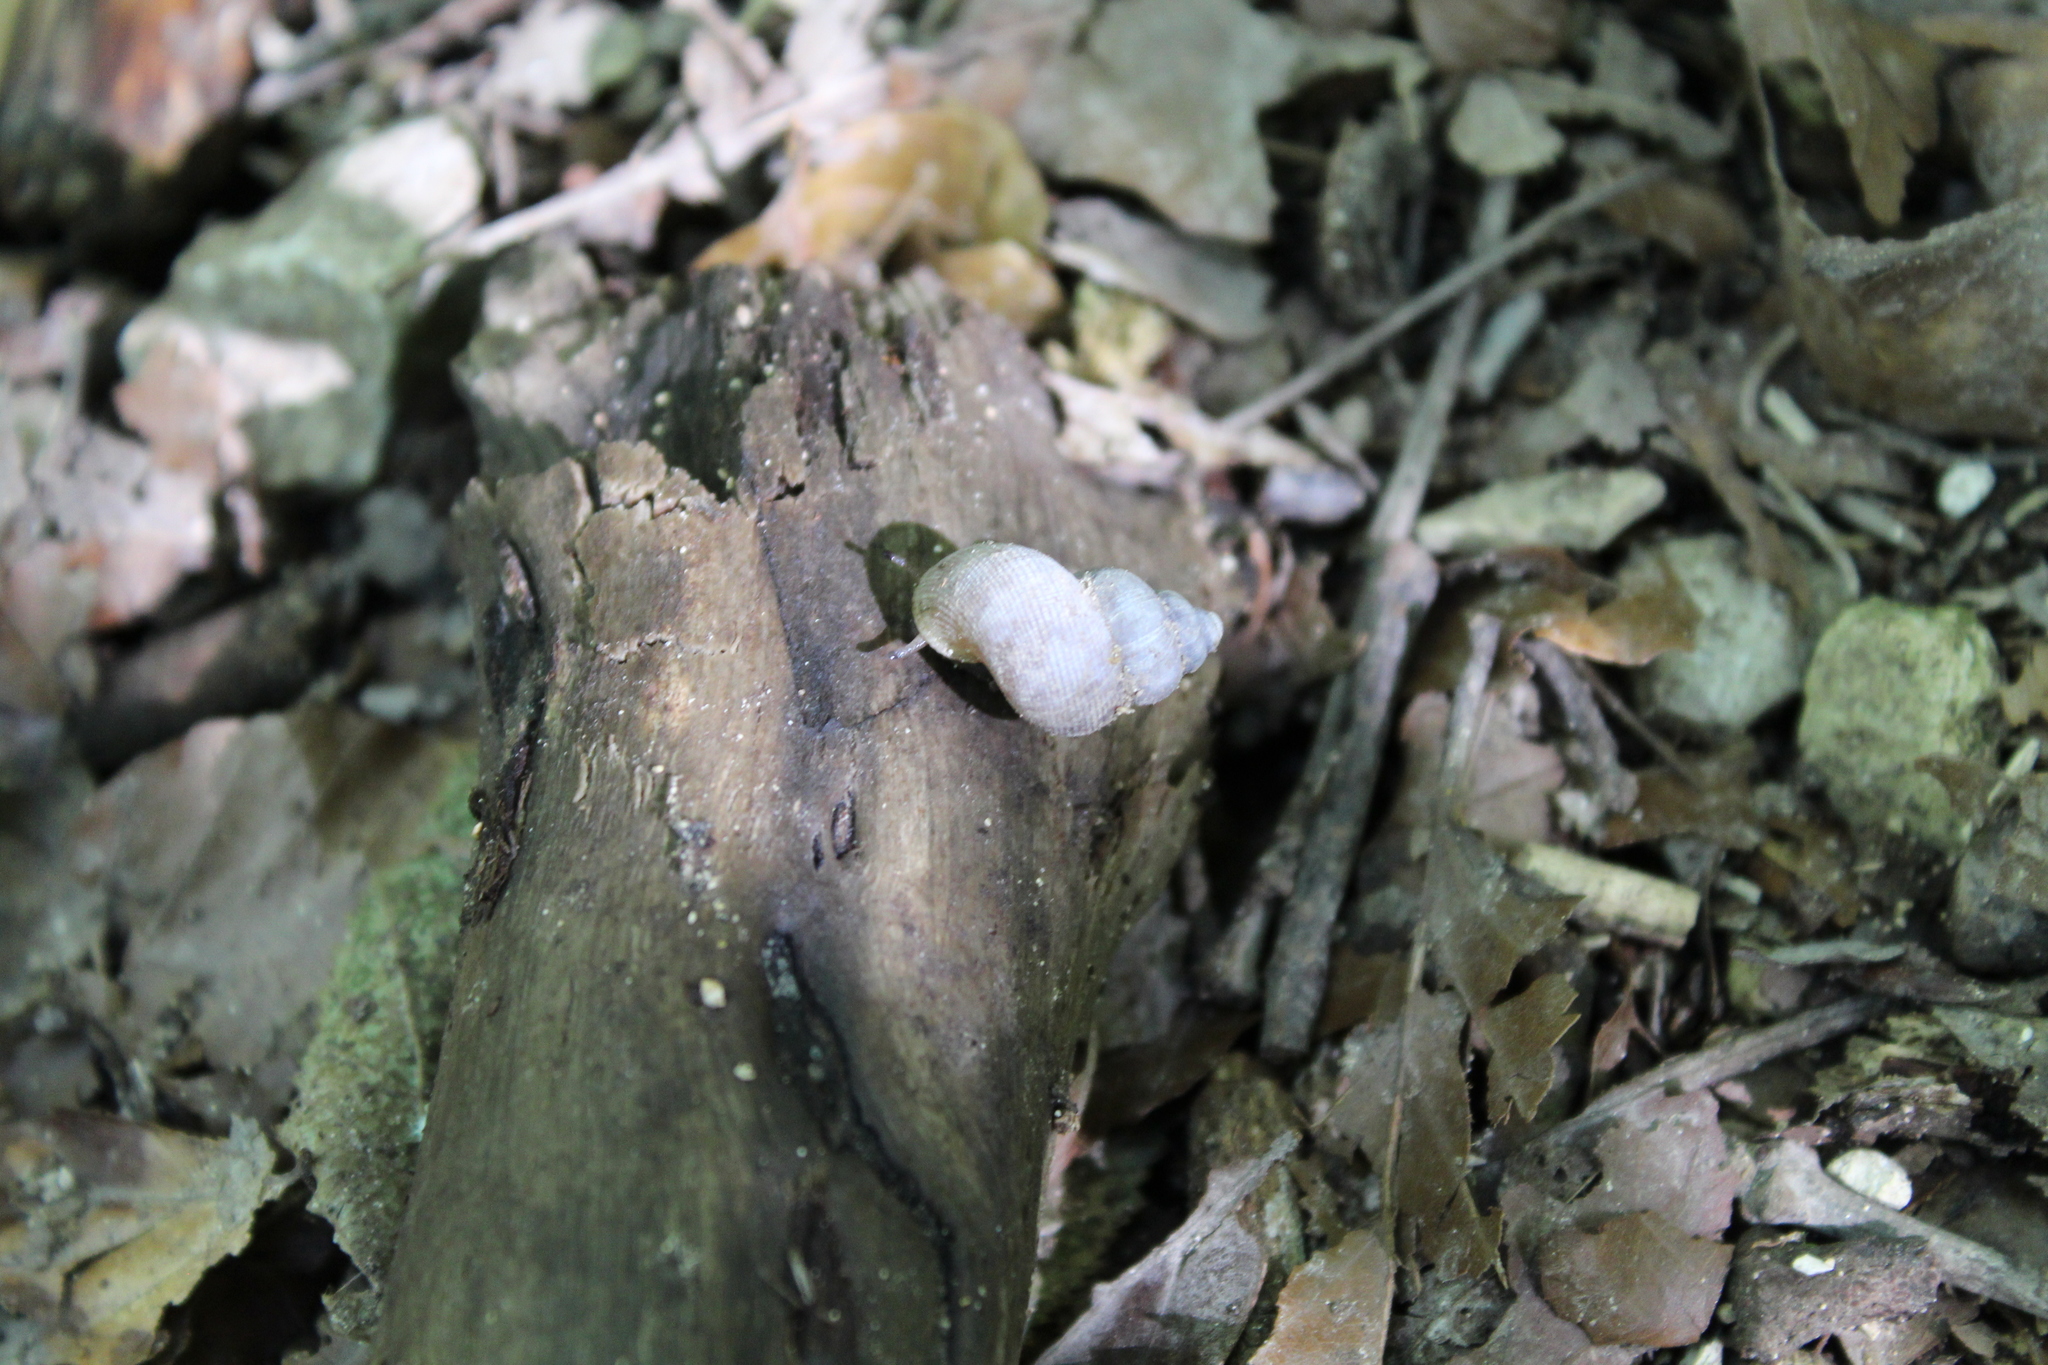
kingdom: Animalia
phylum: Mollusca
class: Gastropoda
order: Littorinimorpha
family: Pomatiidae
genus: Pomatias
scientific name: Pomatias elegans
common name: Red-mouthed snail
